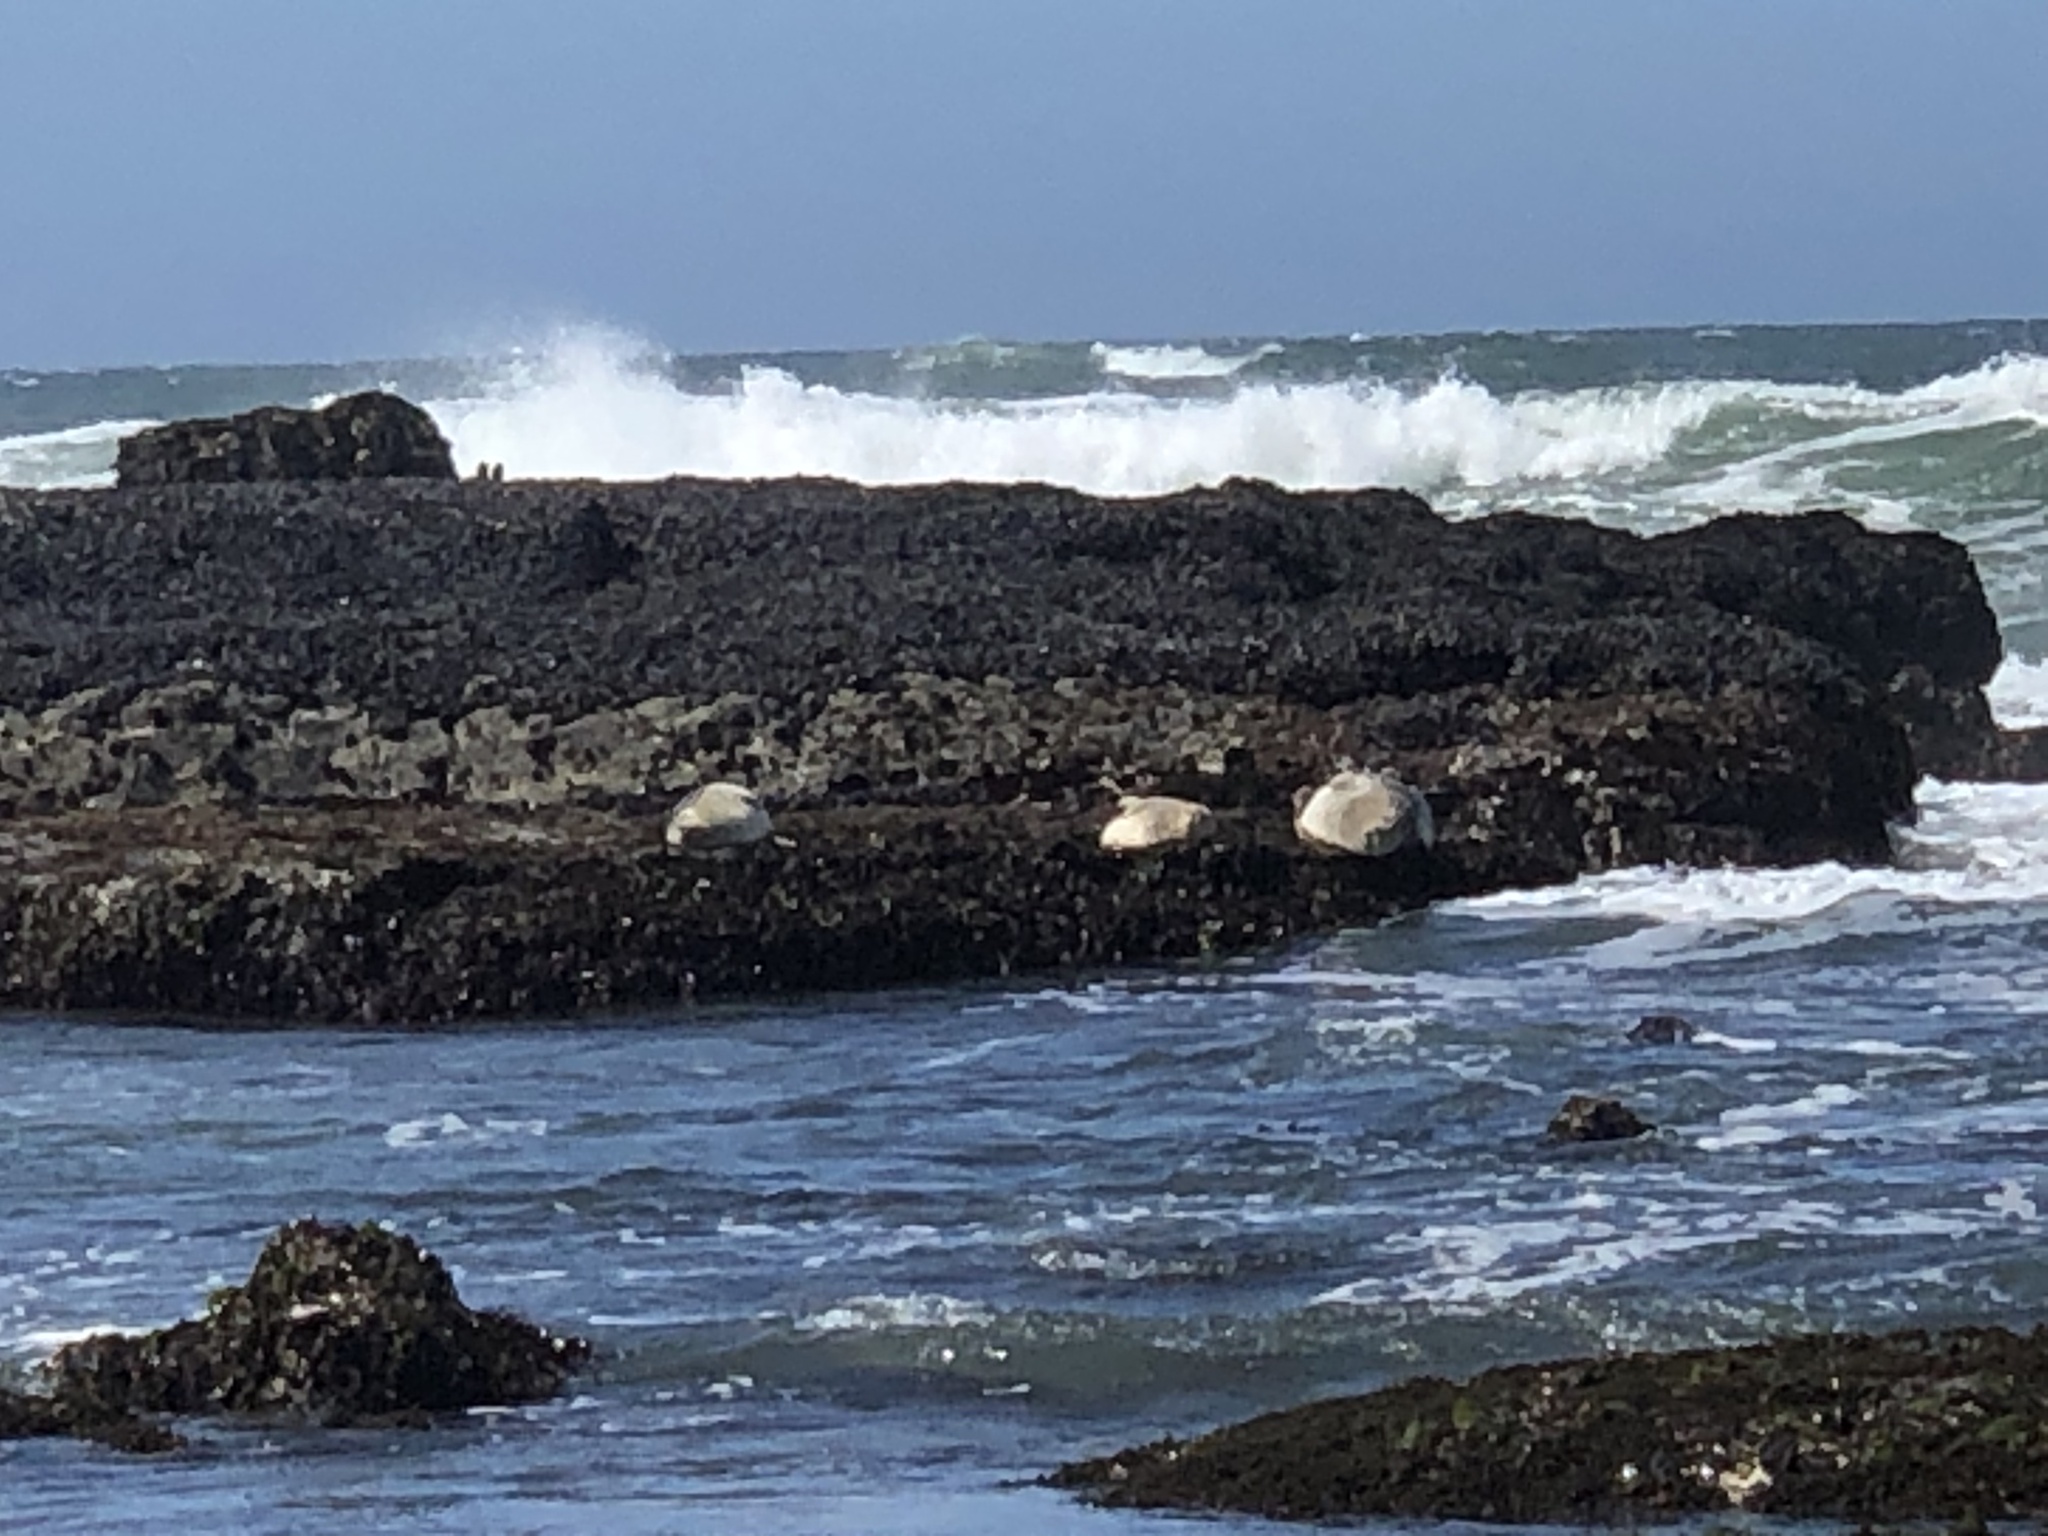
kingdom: Animalia
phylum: Chordata
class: Mammalia
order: Carnivora
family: Phocidae
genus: Phoca
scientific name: Phoca vitulina
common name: Harbor seal
